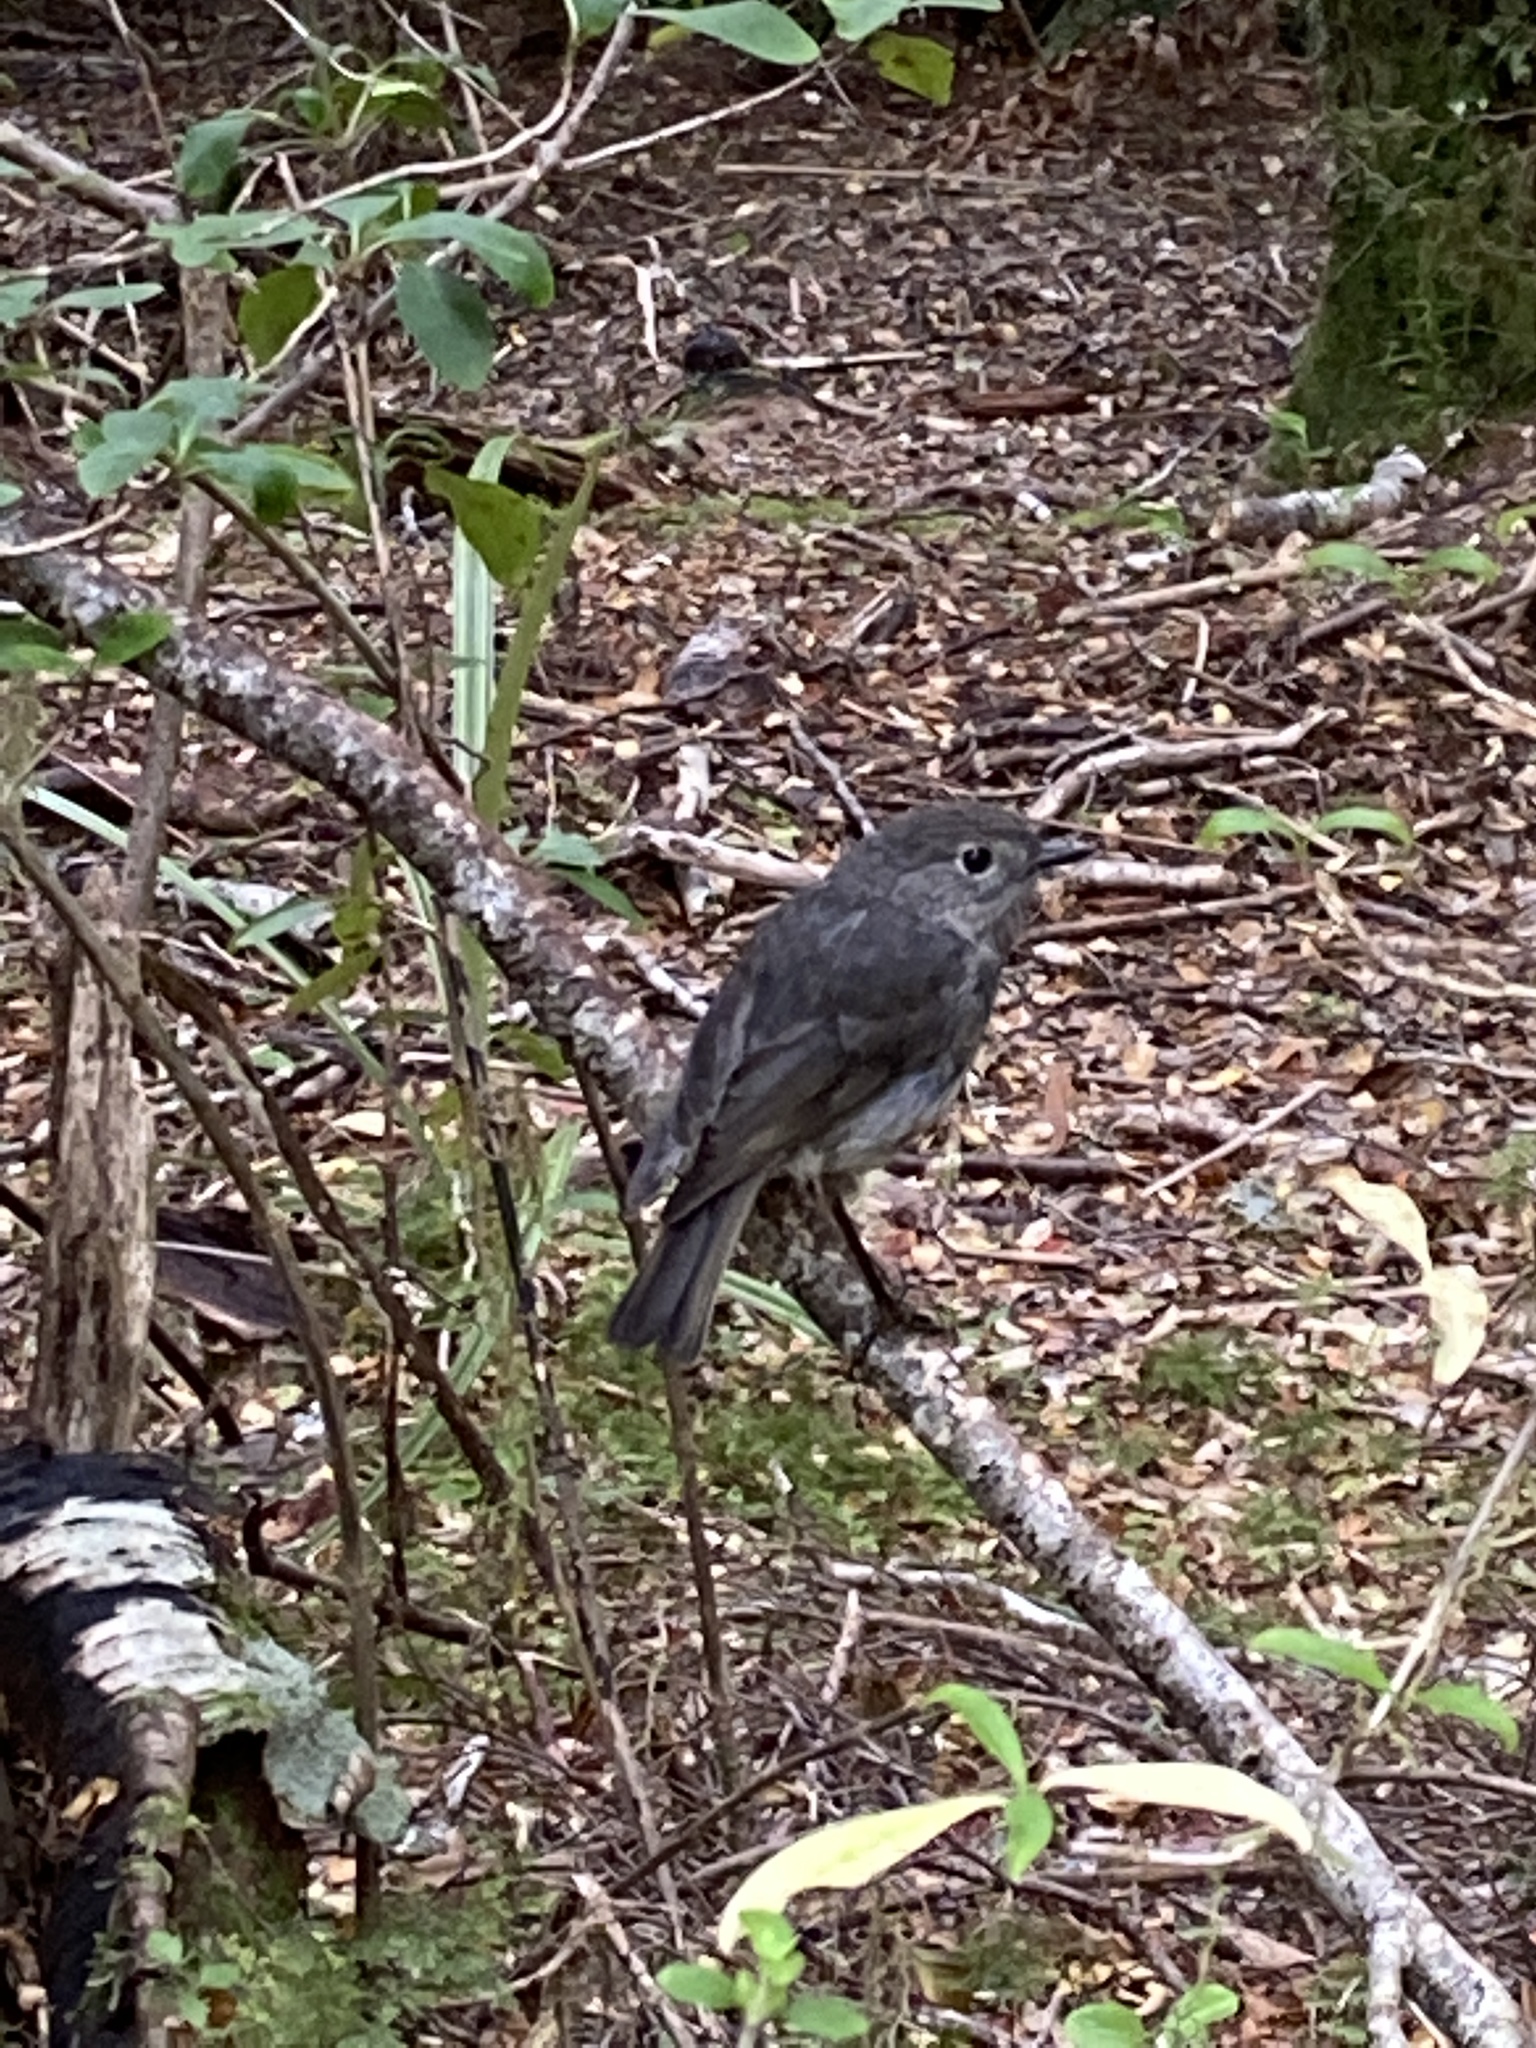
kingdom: Animalia
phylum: Chordata
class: Aves
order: Passeriformes
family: Petroicidae
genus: Petroica
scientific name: Petroica australis
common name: New zealand robin
